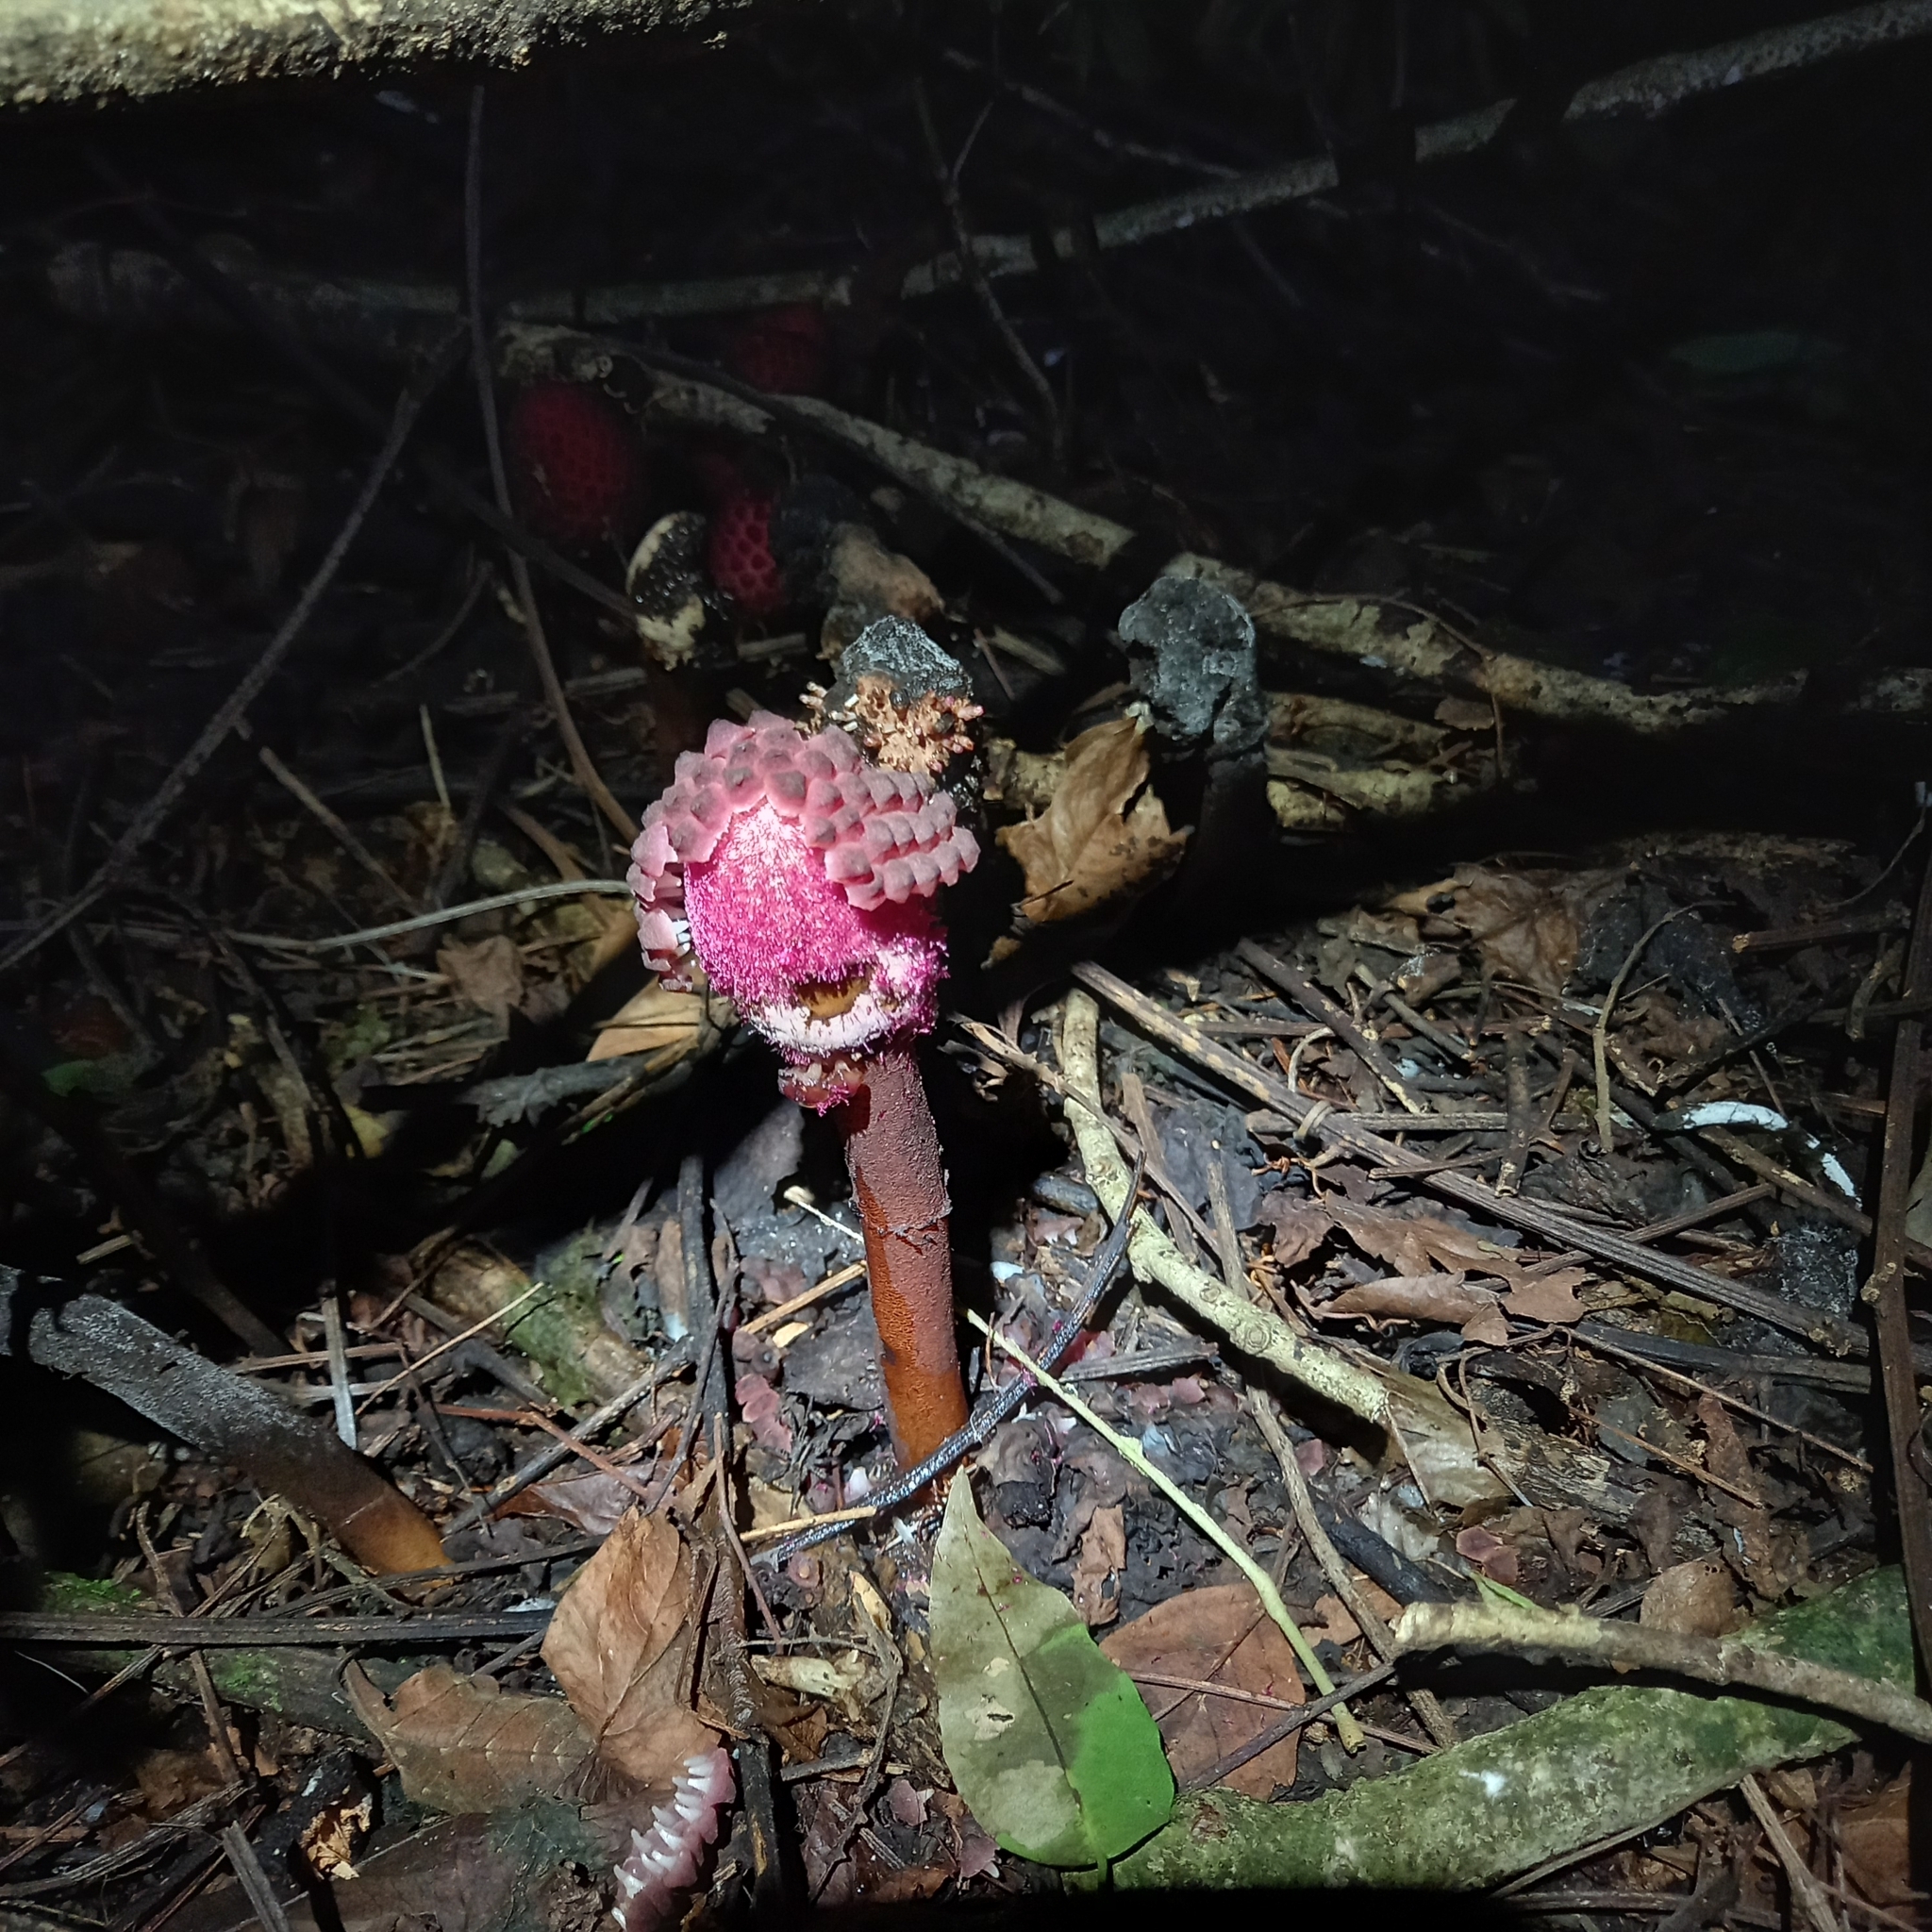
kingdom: Plantae
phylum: Tracheophyta
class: Magnoliopsida
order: Santalales
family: Balanophoraceae
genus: Helosis
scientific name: Helosis cayennensis
